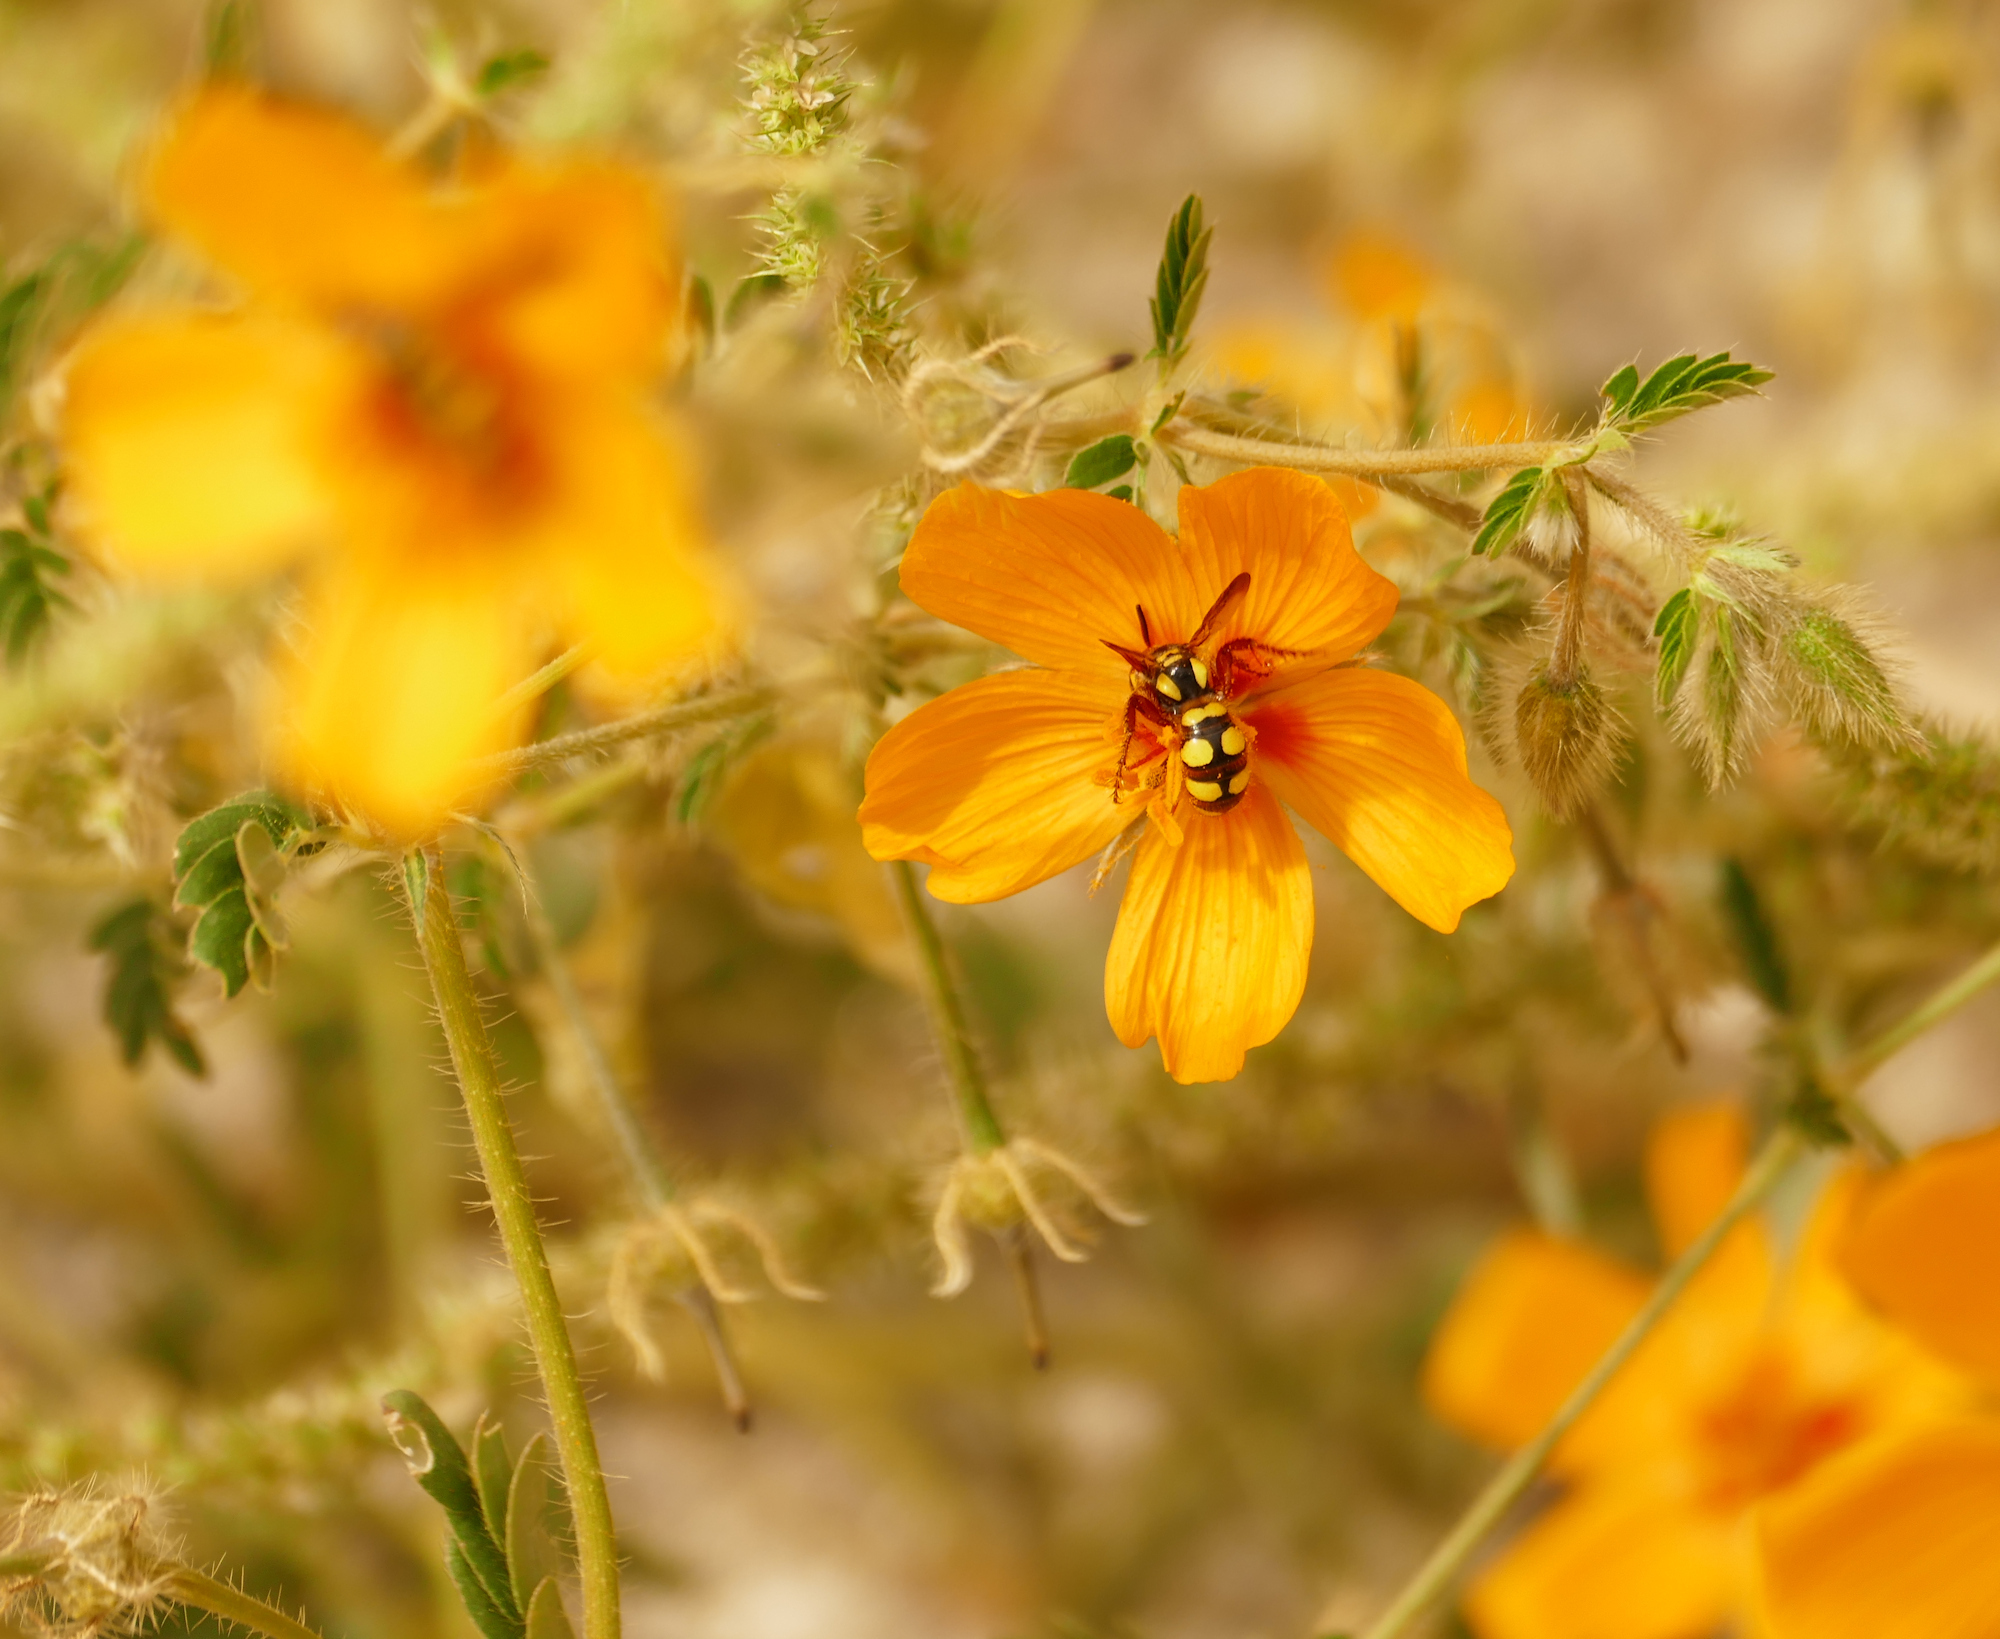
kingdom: Plantae
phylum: Tracheophyta
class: Magnoliopsida
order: Zygophyllales
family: Zygophyllaceae
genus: Kallstroemia
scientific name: Kallstroemia grandiflora
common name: Arizona-poppy
